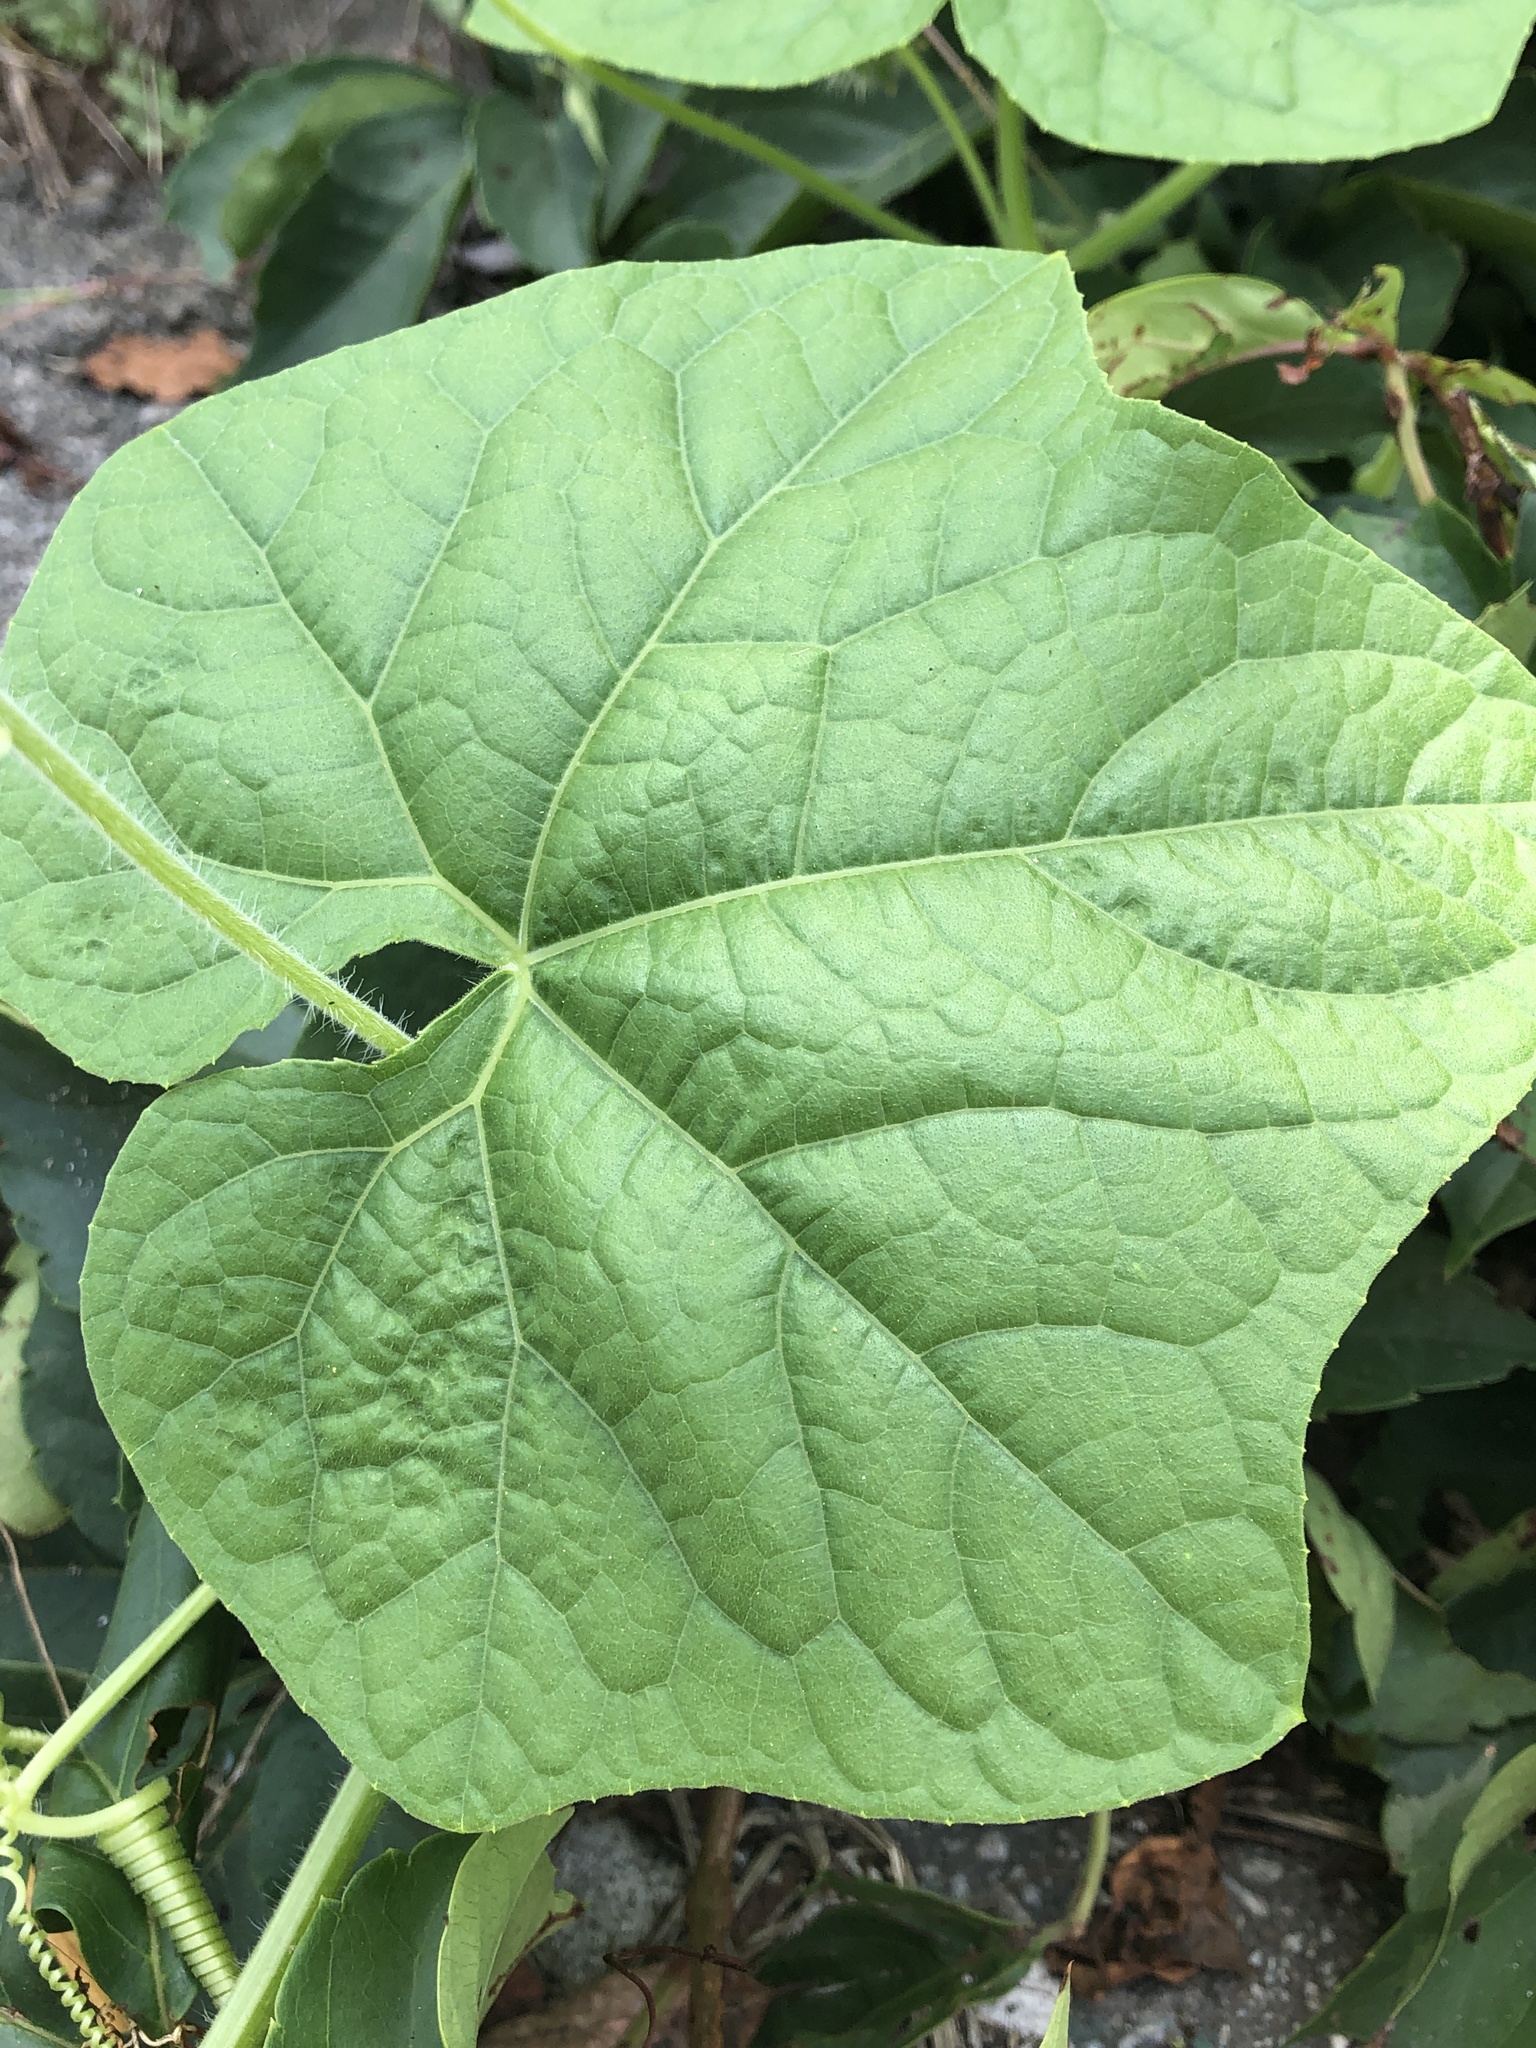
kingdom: Plantae
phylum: Tracheophyta
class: Magnoliopsida
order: Cucurbitales
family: Cucurbitaceae
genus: Sicyos
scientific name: Sicyos angulatus
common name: Angled burr cucumber
